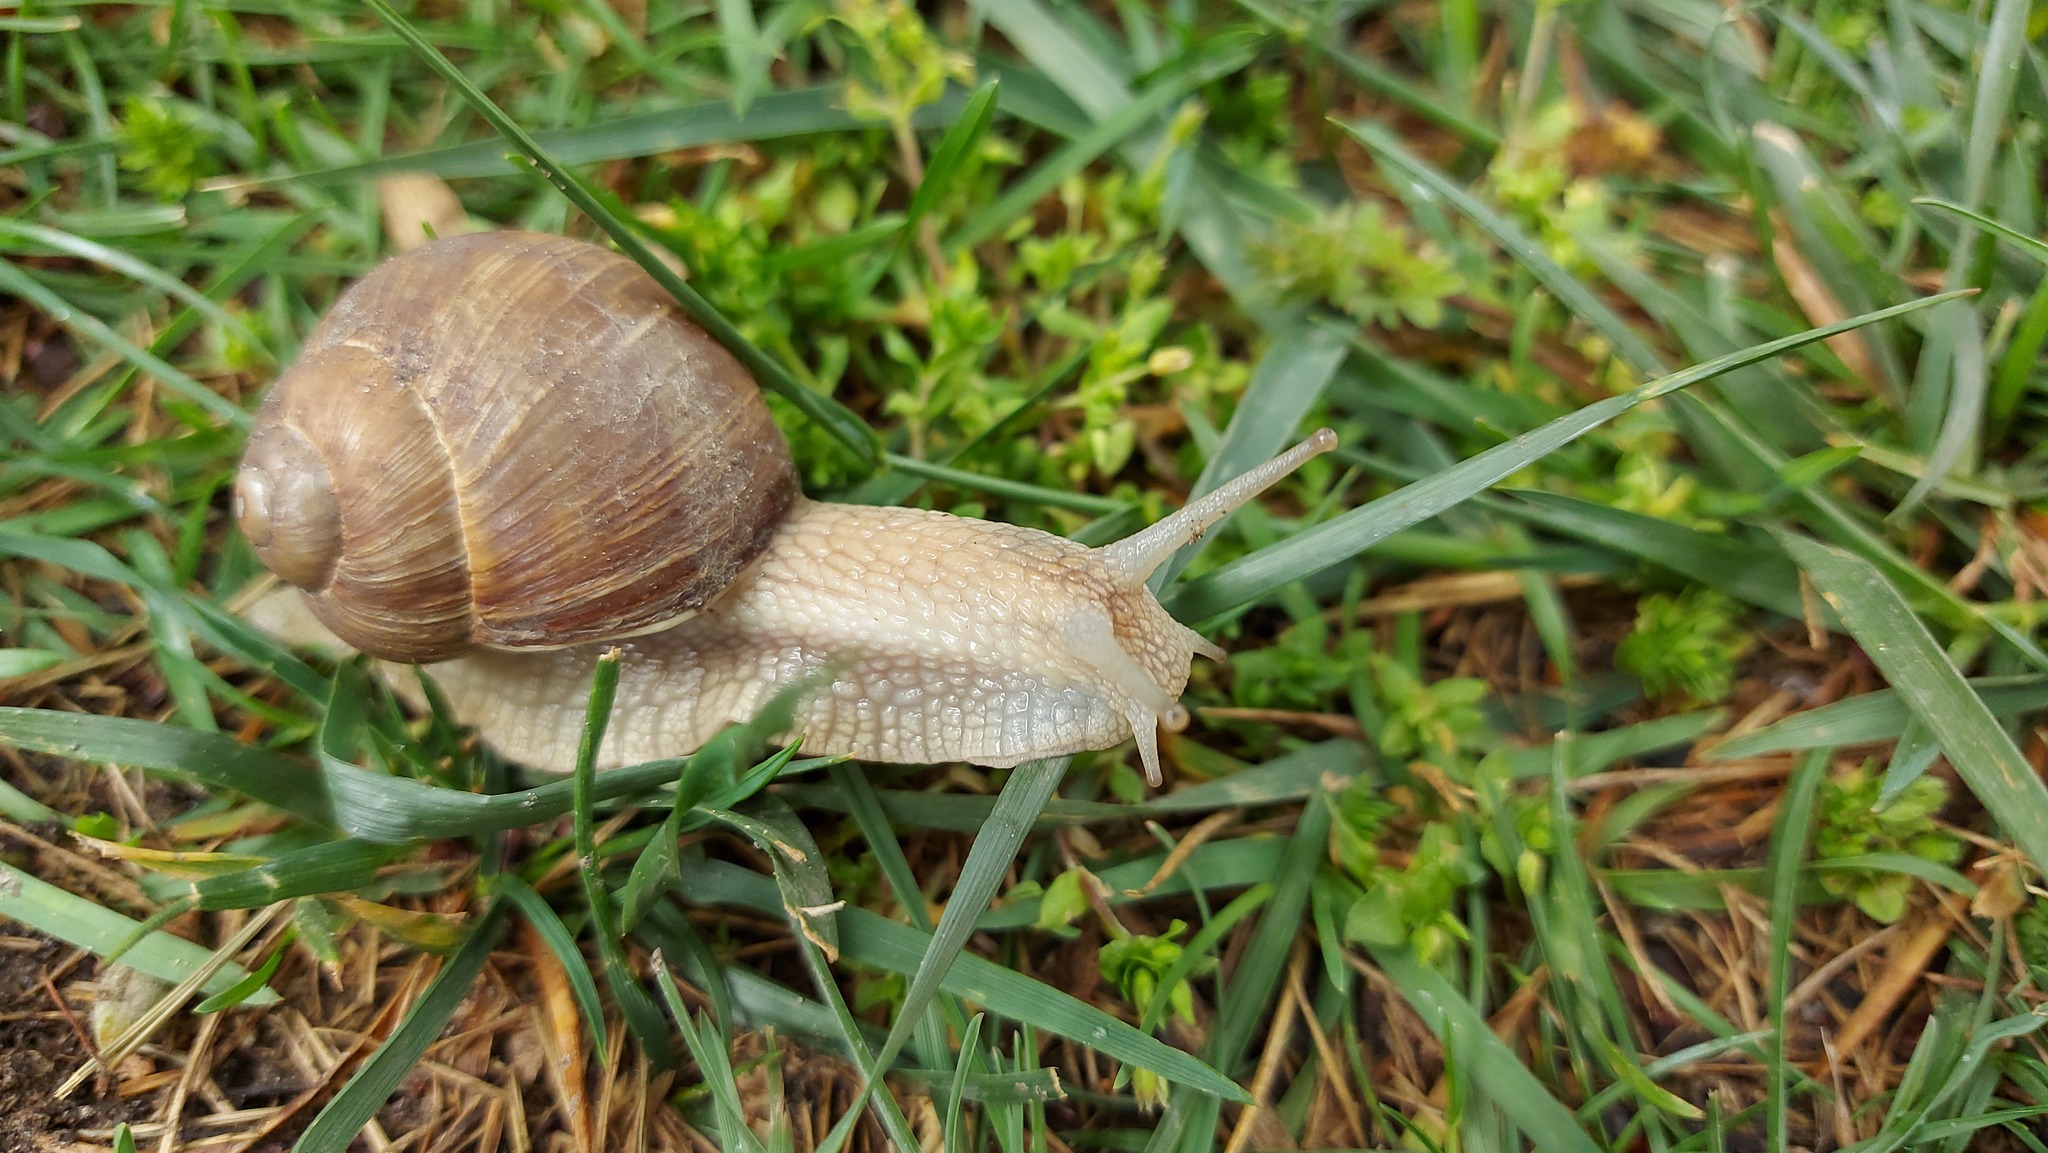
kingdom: Animalia
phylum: Mollusca
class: Gastropoda
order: Stylommatophora
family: Helicidae
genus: Helix
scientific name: Helix pomatia
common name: Roman snail
